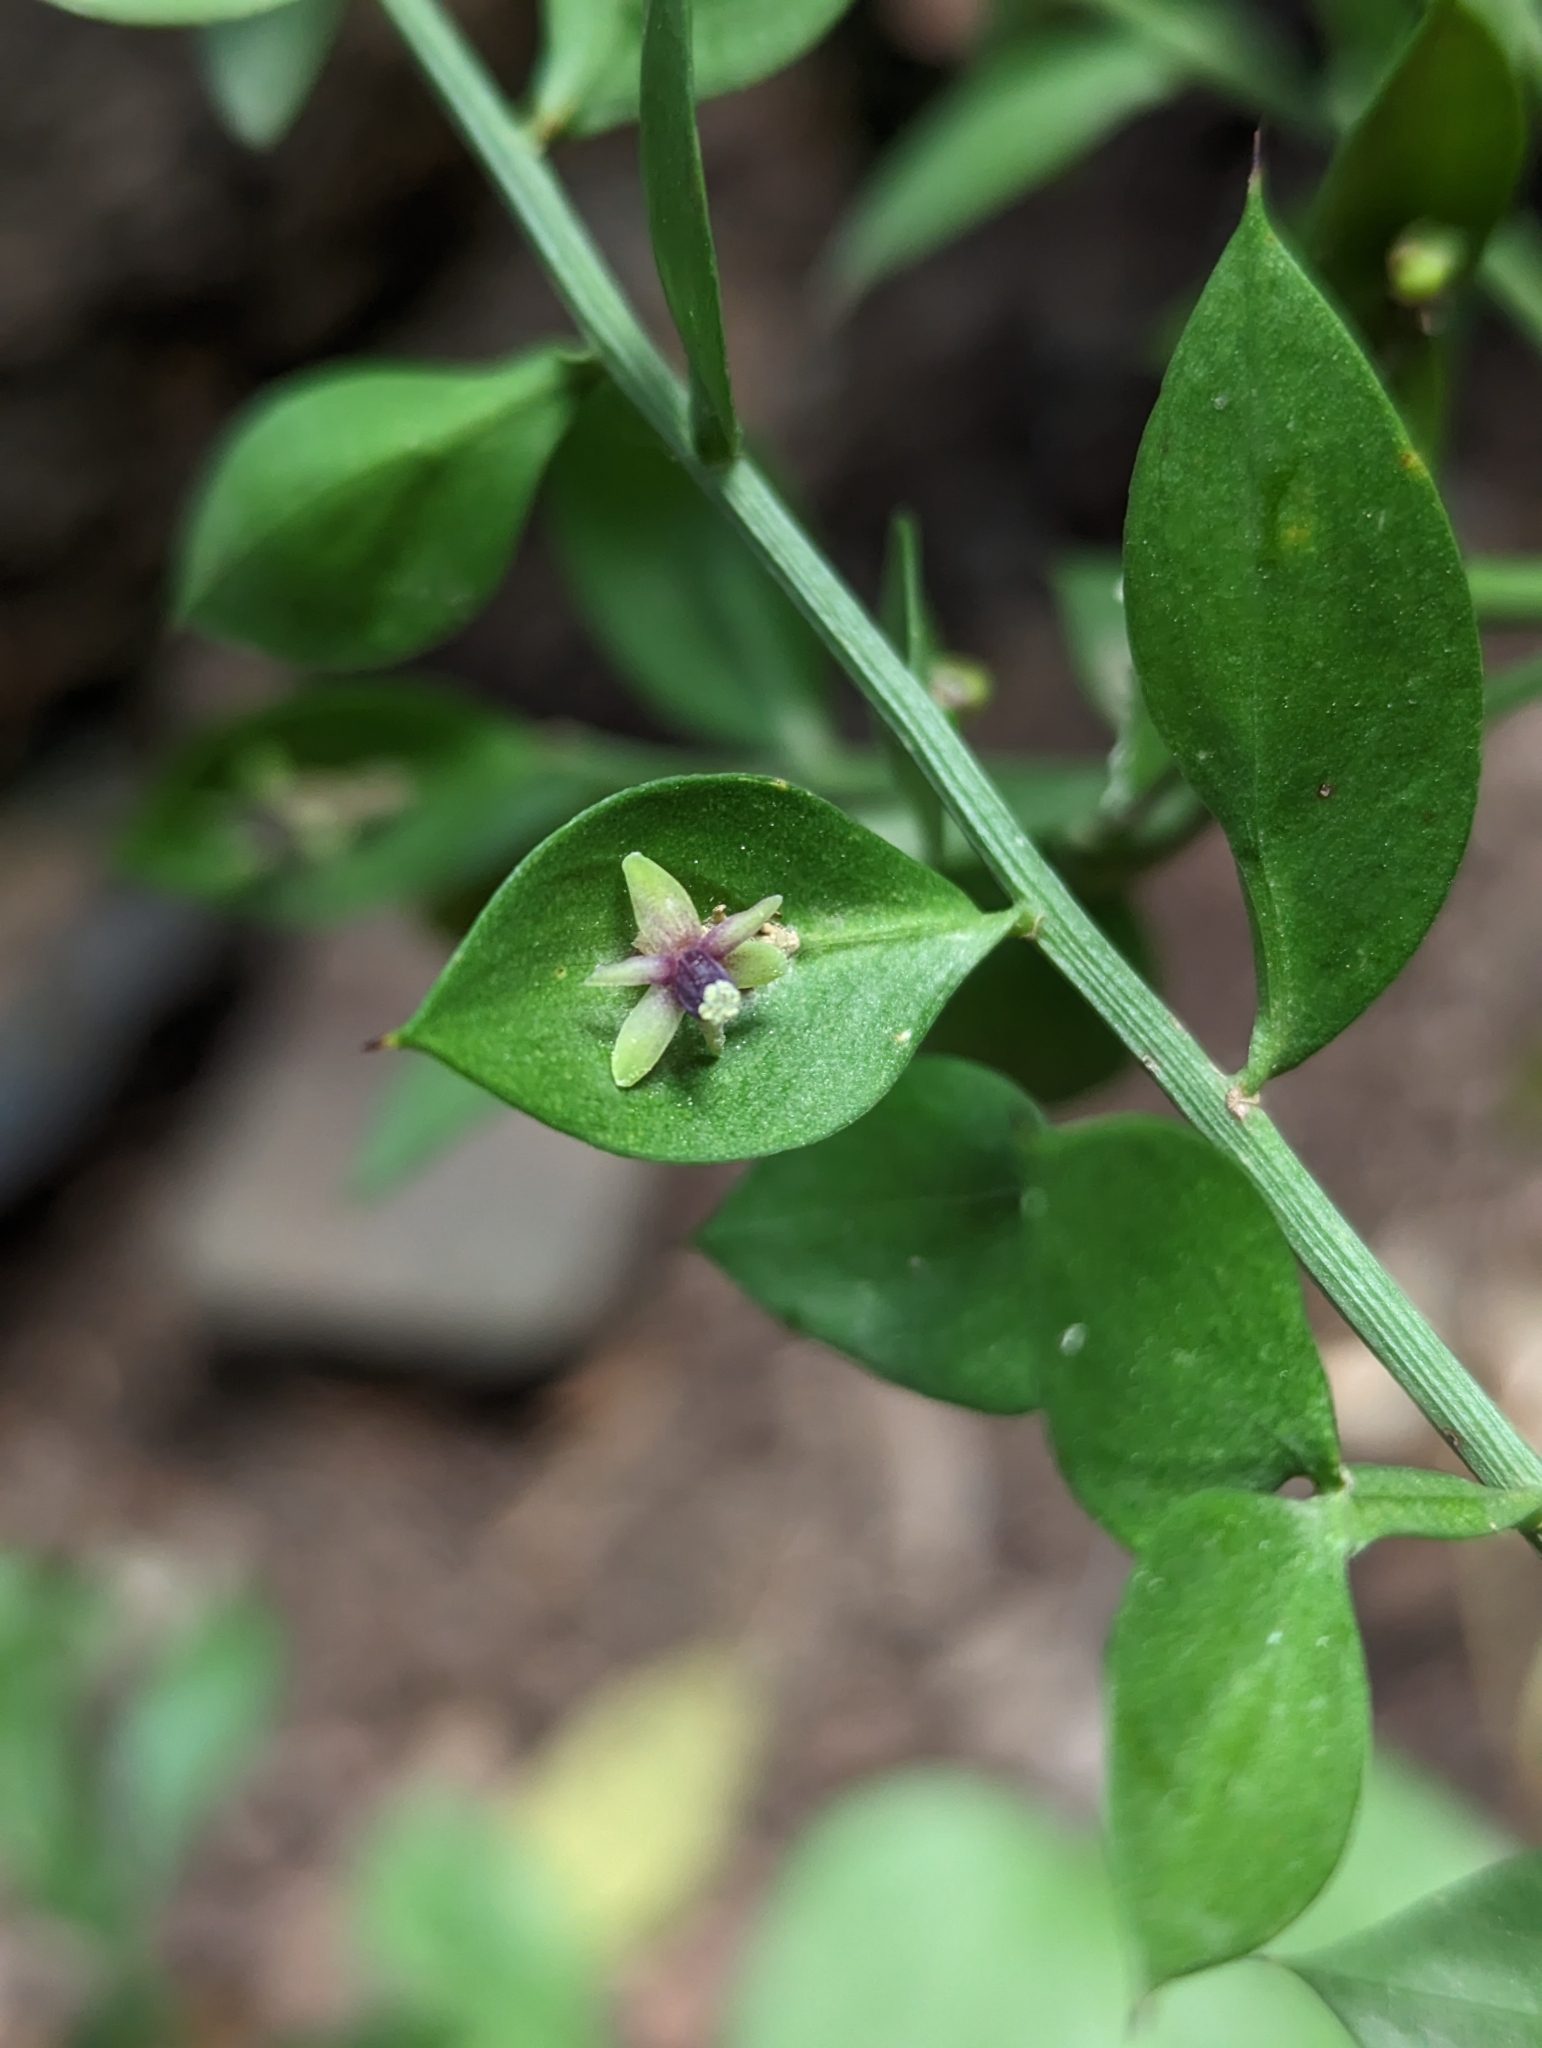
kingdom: Plantae
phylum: Tracheophyta
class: Liliopsida
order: Asparagales
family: Asparagaceae
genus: Ruscus
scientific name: Ruscus aculeatus
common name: Butcher's-broom
